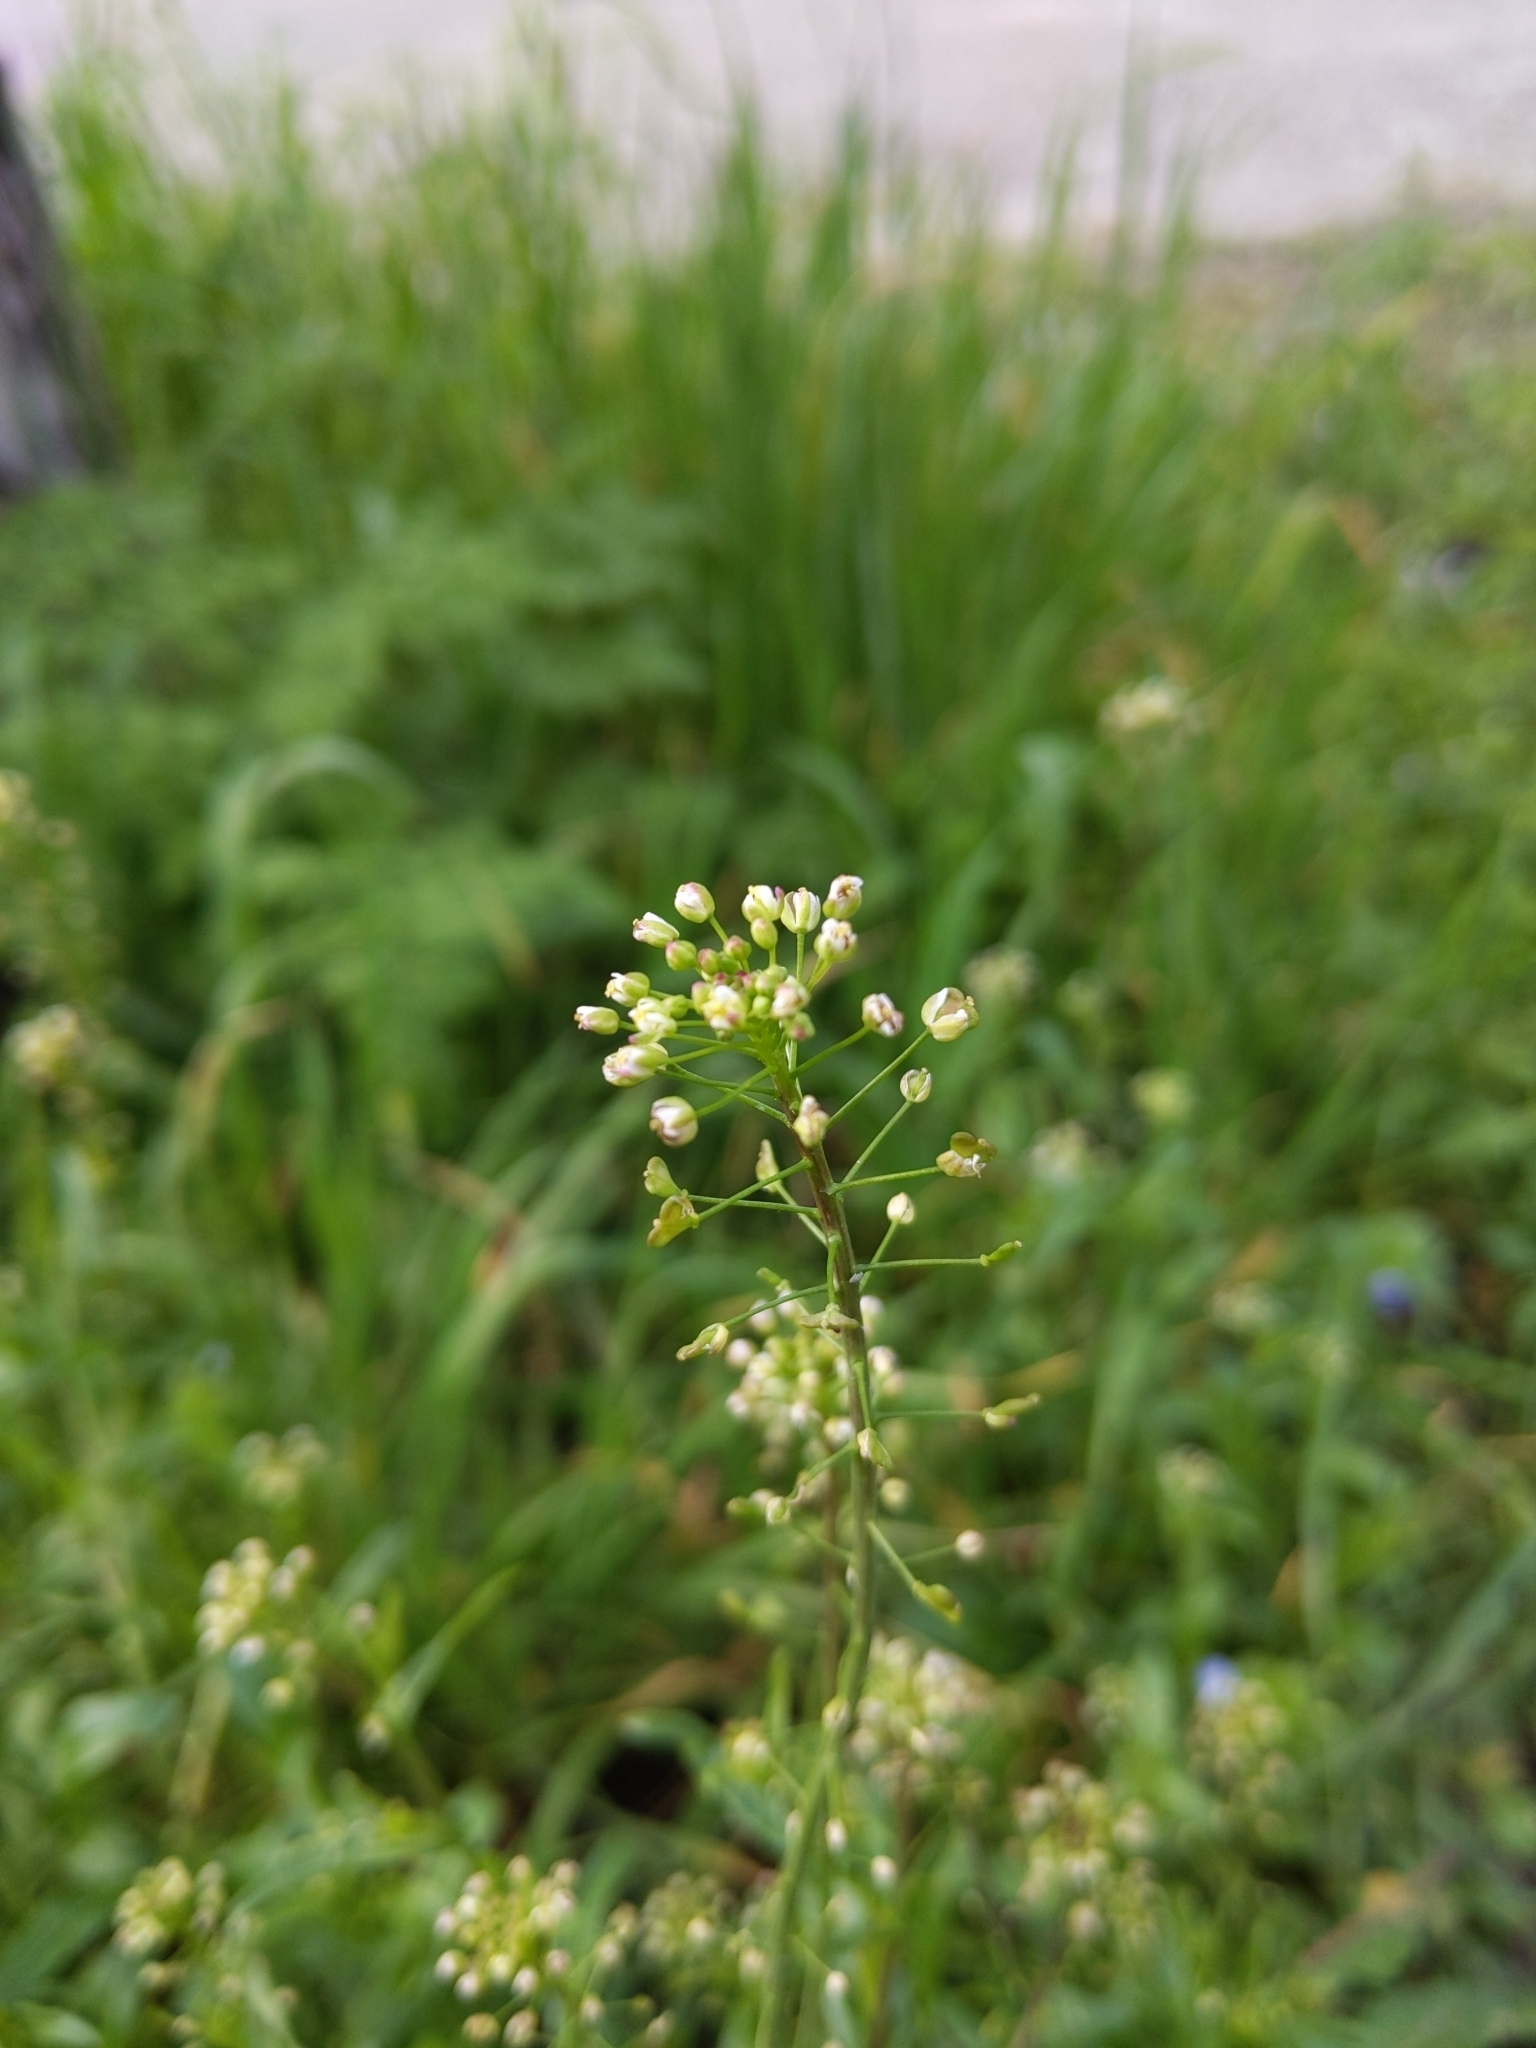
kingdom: Plantae
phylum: Tracheophyta
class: Magnoliopsida
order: Brassicales
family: Brassicaceae
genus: Capsella
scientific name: Capsella bursa-pastoris
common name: Shepherd's purse
